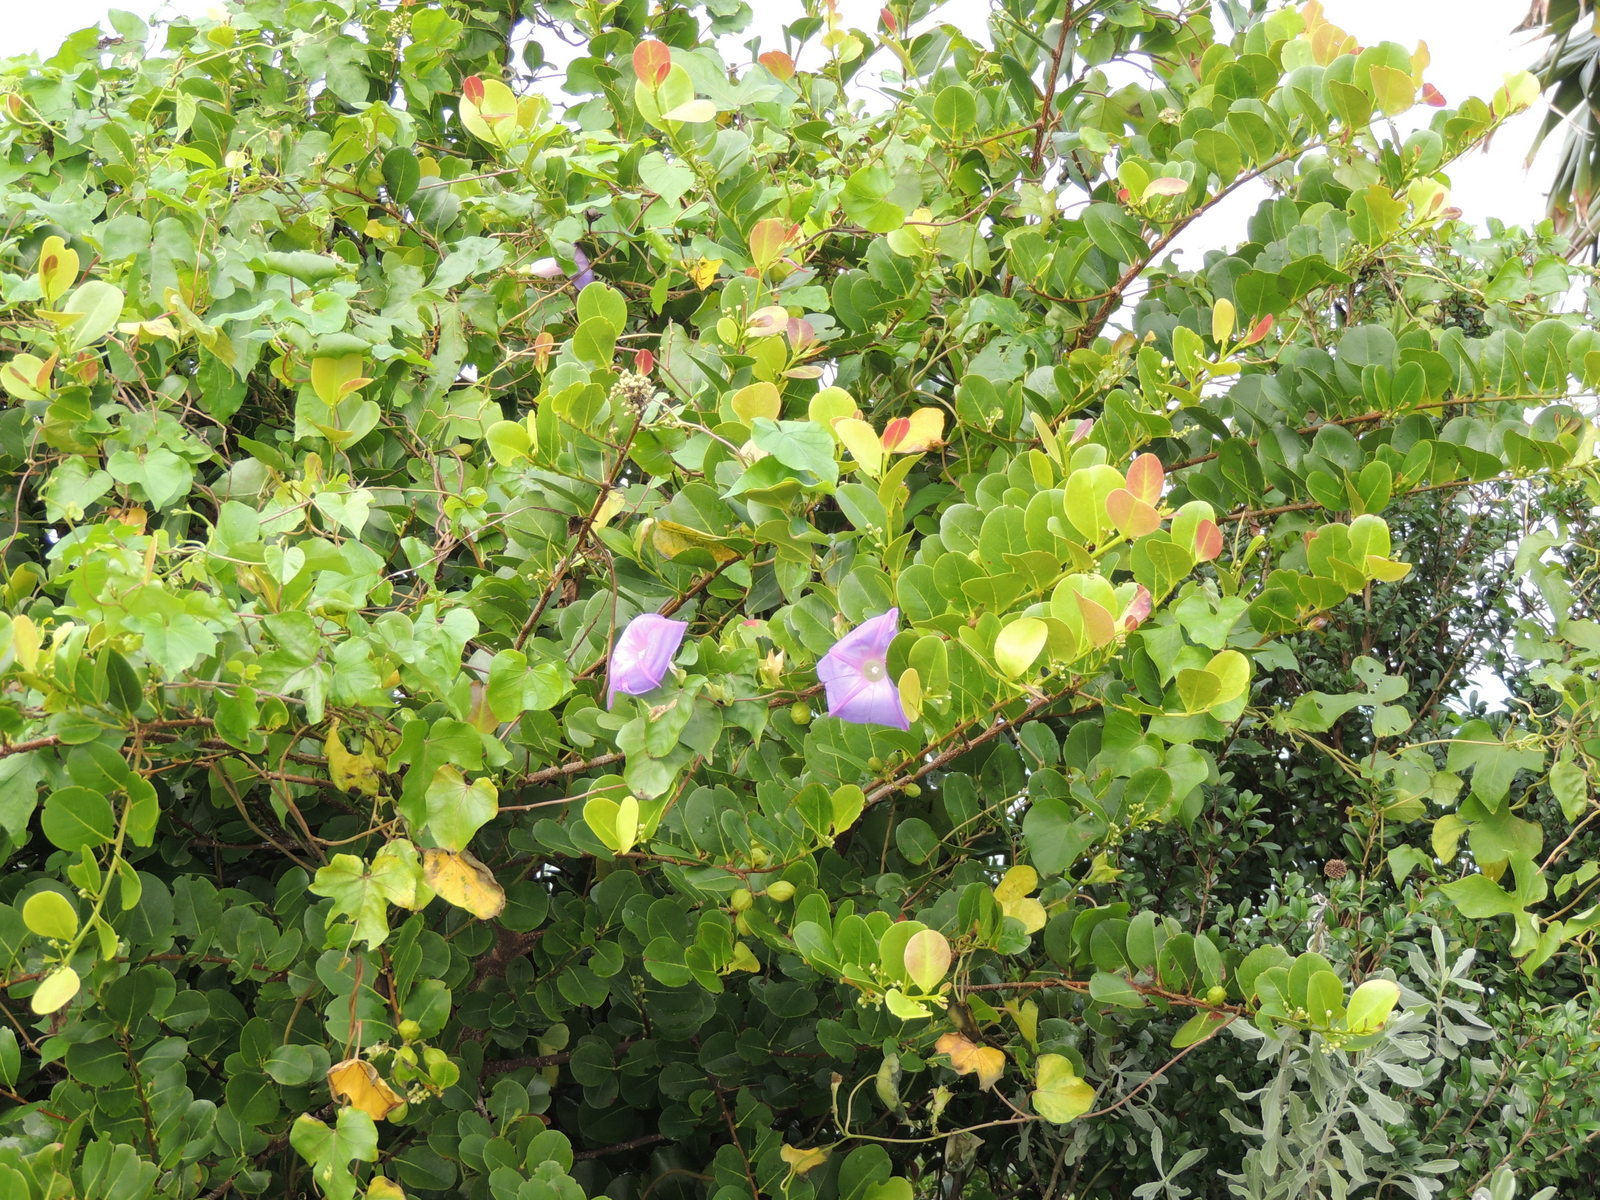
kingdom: Plantae
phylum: Tracheophyta
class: Magnoliopsida
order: Solanales
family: Convolvulaceae
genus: Ipomoea
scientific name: Ipomoea indica
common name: Blue dawnflower
